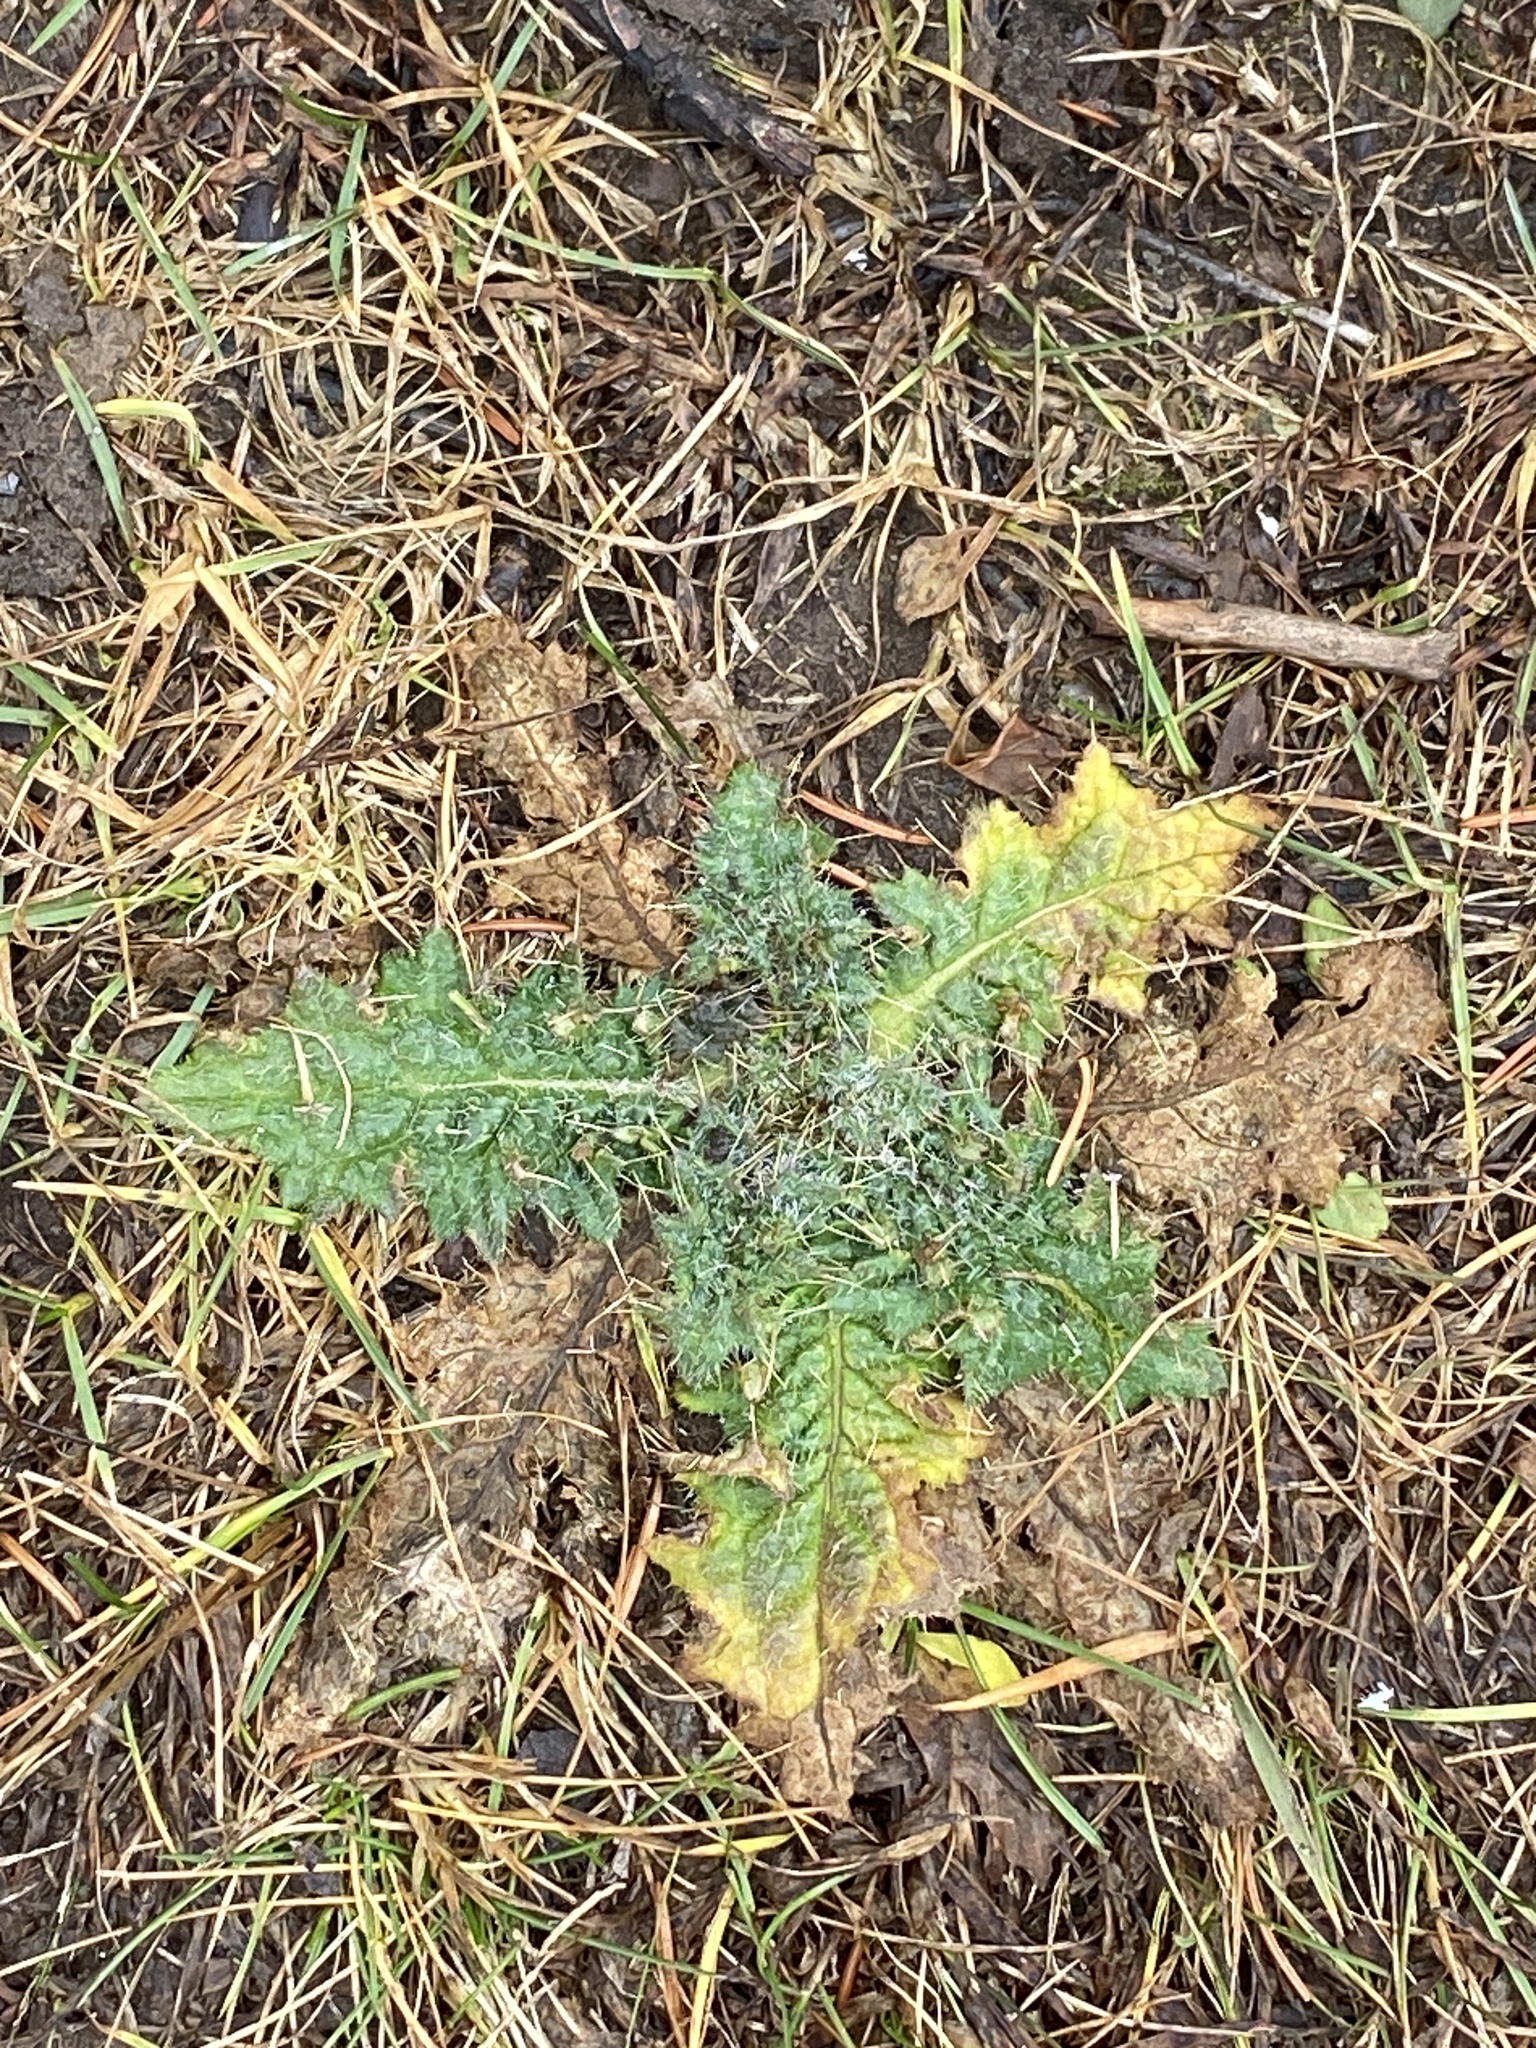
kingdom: Plantae
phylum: Tracheophyta
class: Magnoliopsida
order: Asterales
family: Asteraceae
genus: Cirsium
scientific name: Cirsium vulgare
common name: Bull thistle
